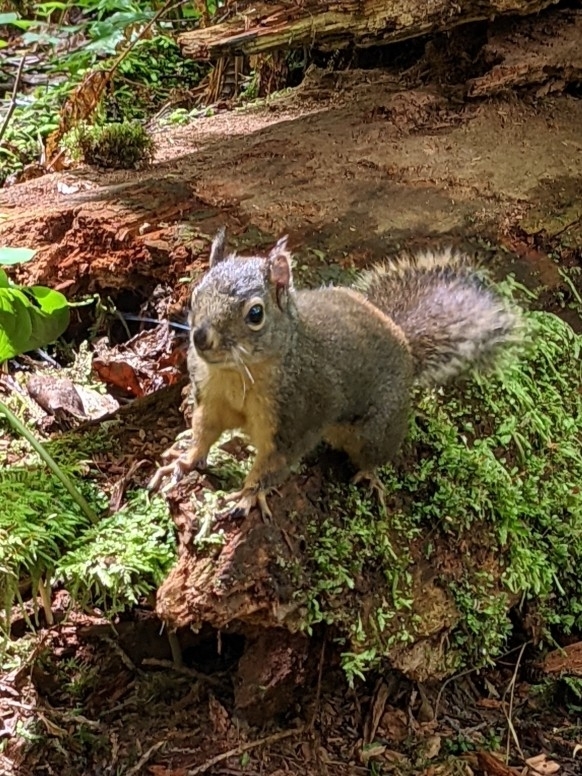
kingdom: Animalia
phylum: Chordata
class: Mammalia
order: Rodentia
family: Sciuridae
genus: Tamiasciurus
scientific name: Tamiasciurus douglasii
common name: Douglas's squirrel
